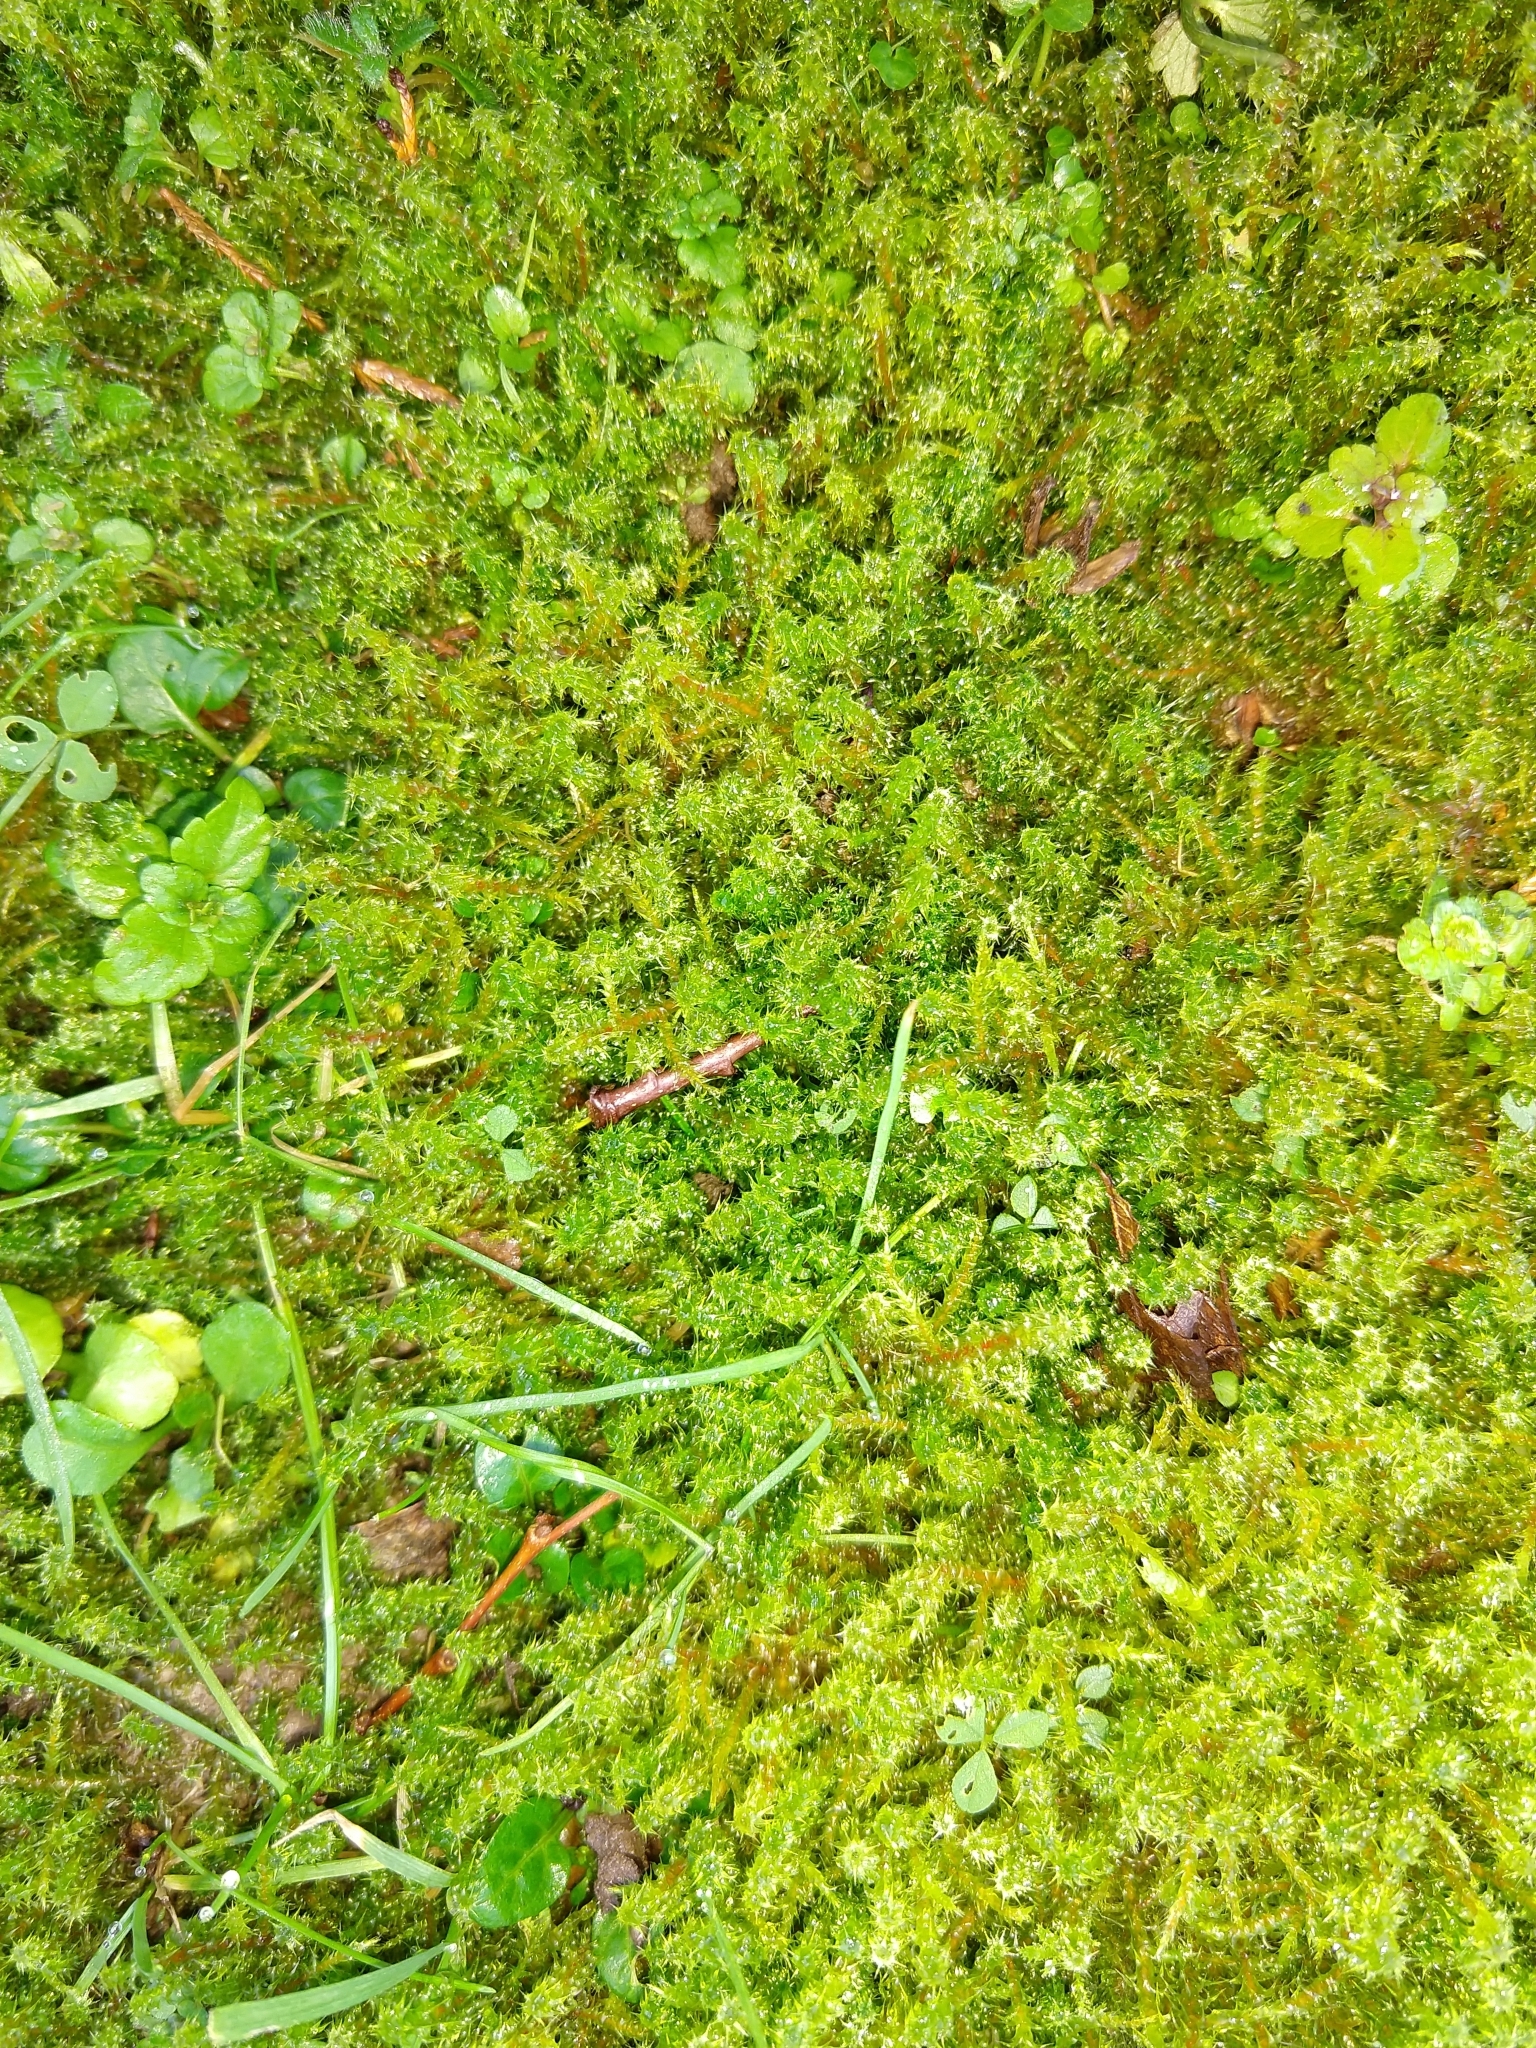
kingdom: Plantae
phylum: Bryophyta
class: Bryopsida
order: Hypnales
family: Hylocomiaceae
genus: Rhytidiadelphus
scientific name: Rhytidiadelphus squarrosus
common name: Springy turf-moss
